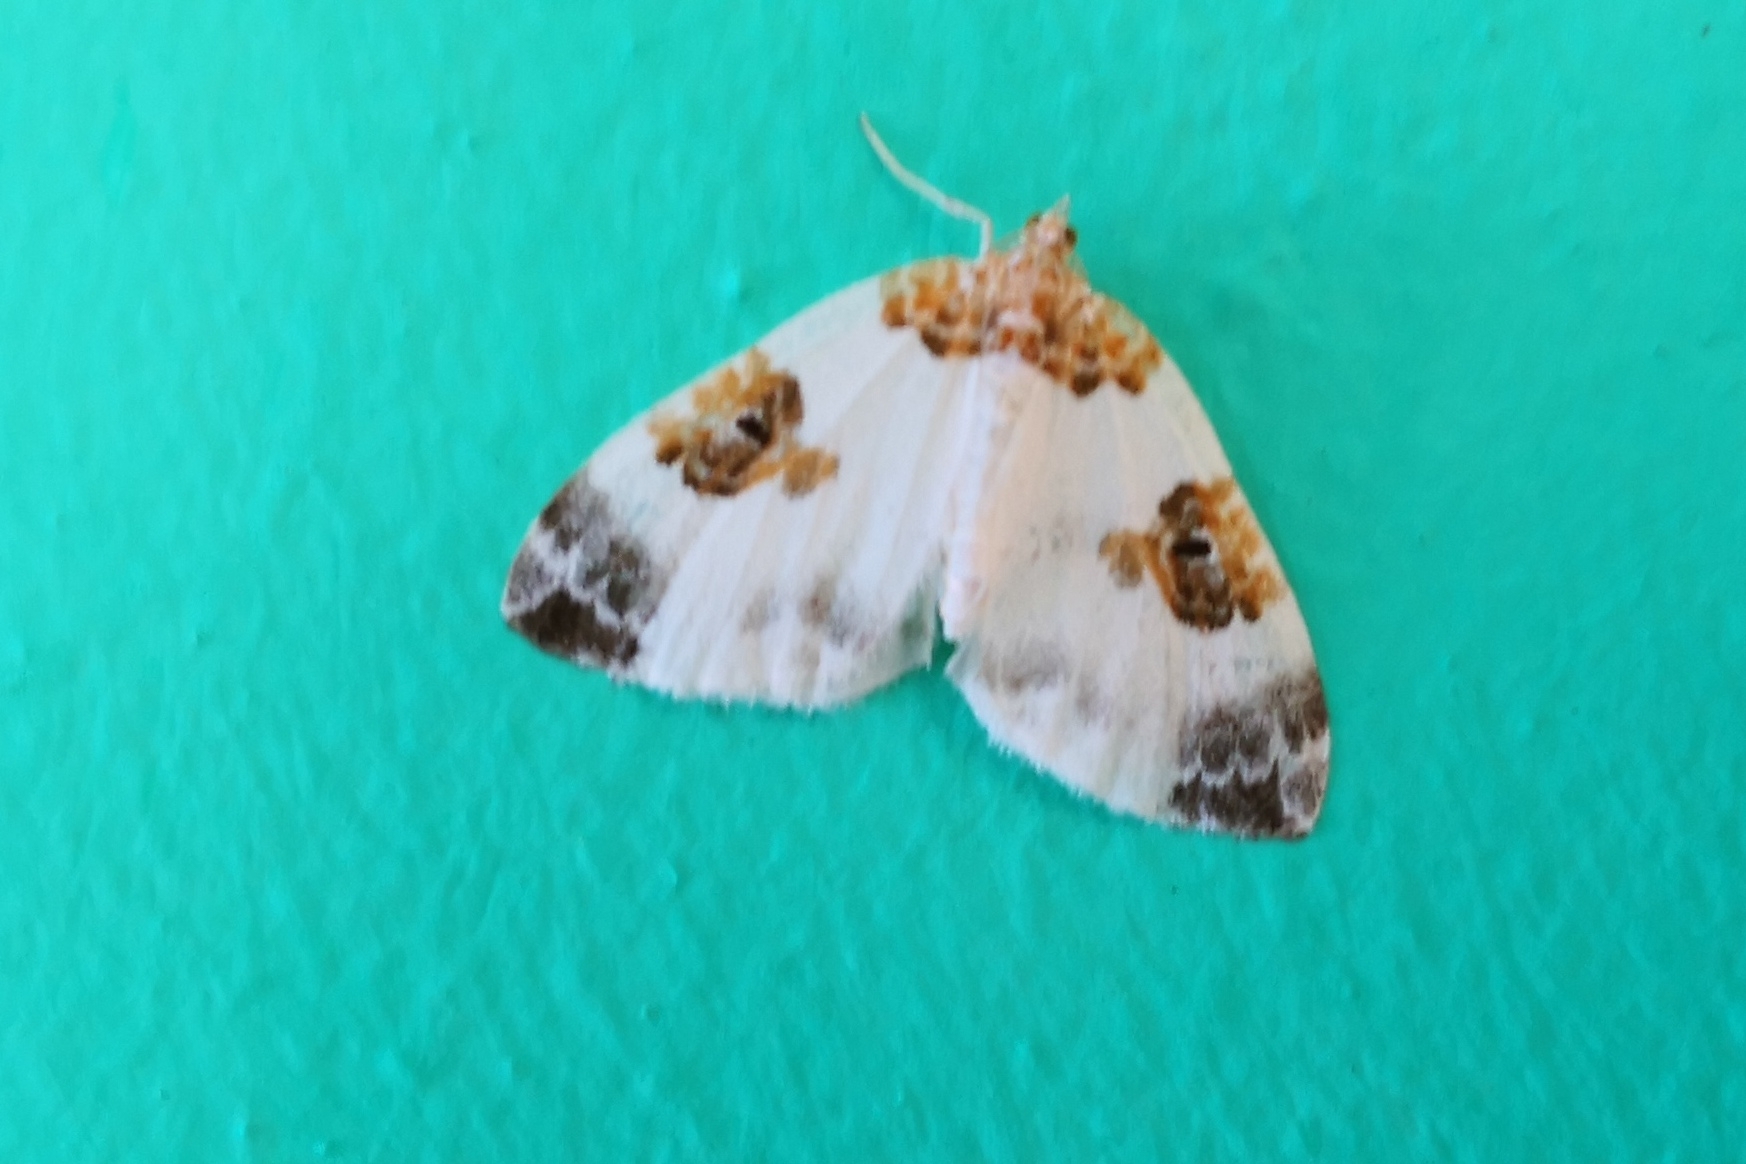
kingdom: Animalia
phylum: Arthropoda
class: Insecta
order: Lepidoptera
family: Geometridae
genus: Plemyria
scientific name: Plemyria rubiginata
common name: Blue-bordered carpet
